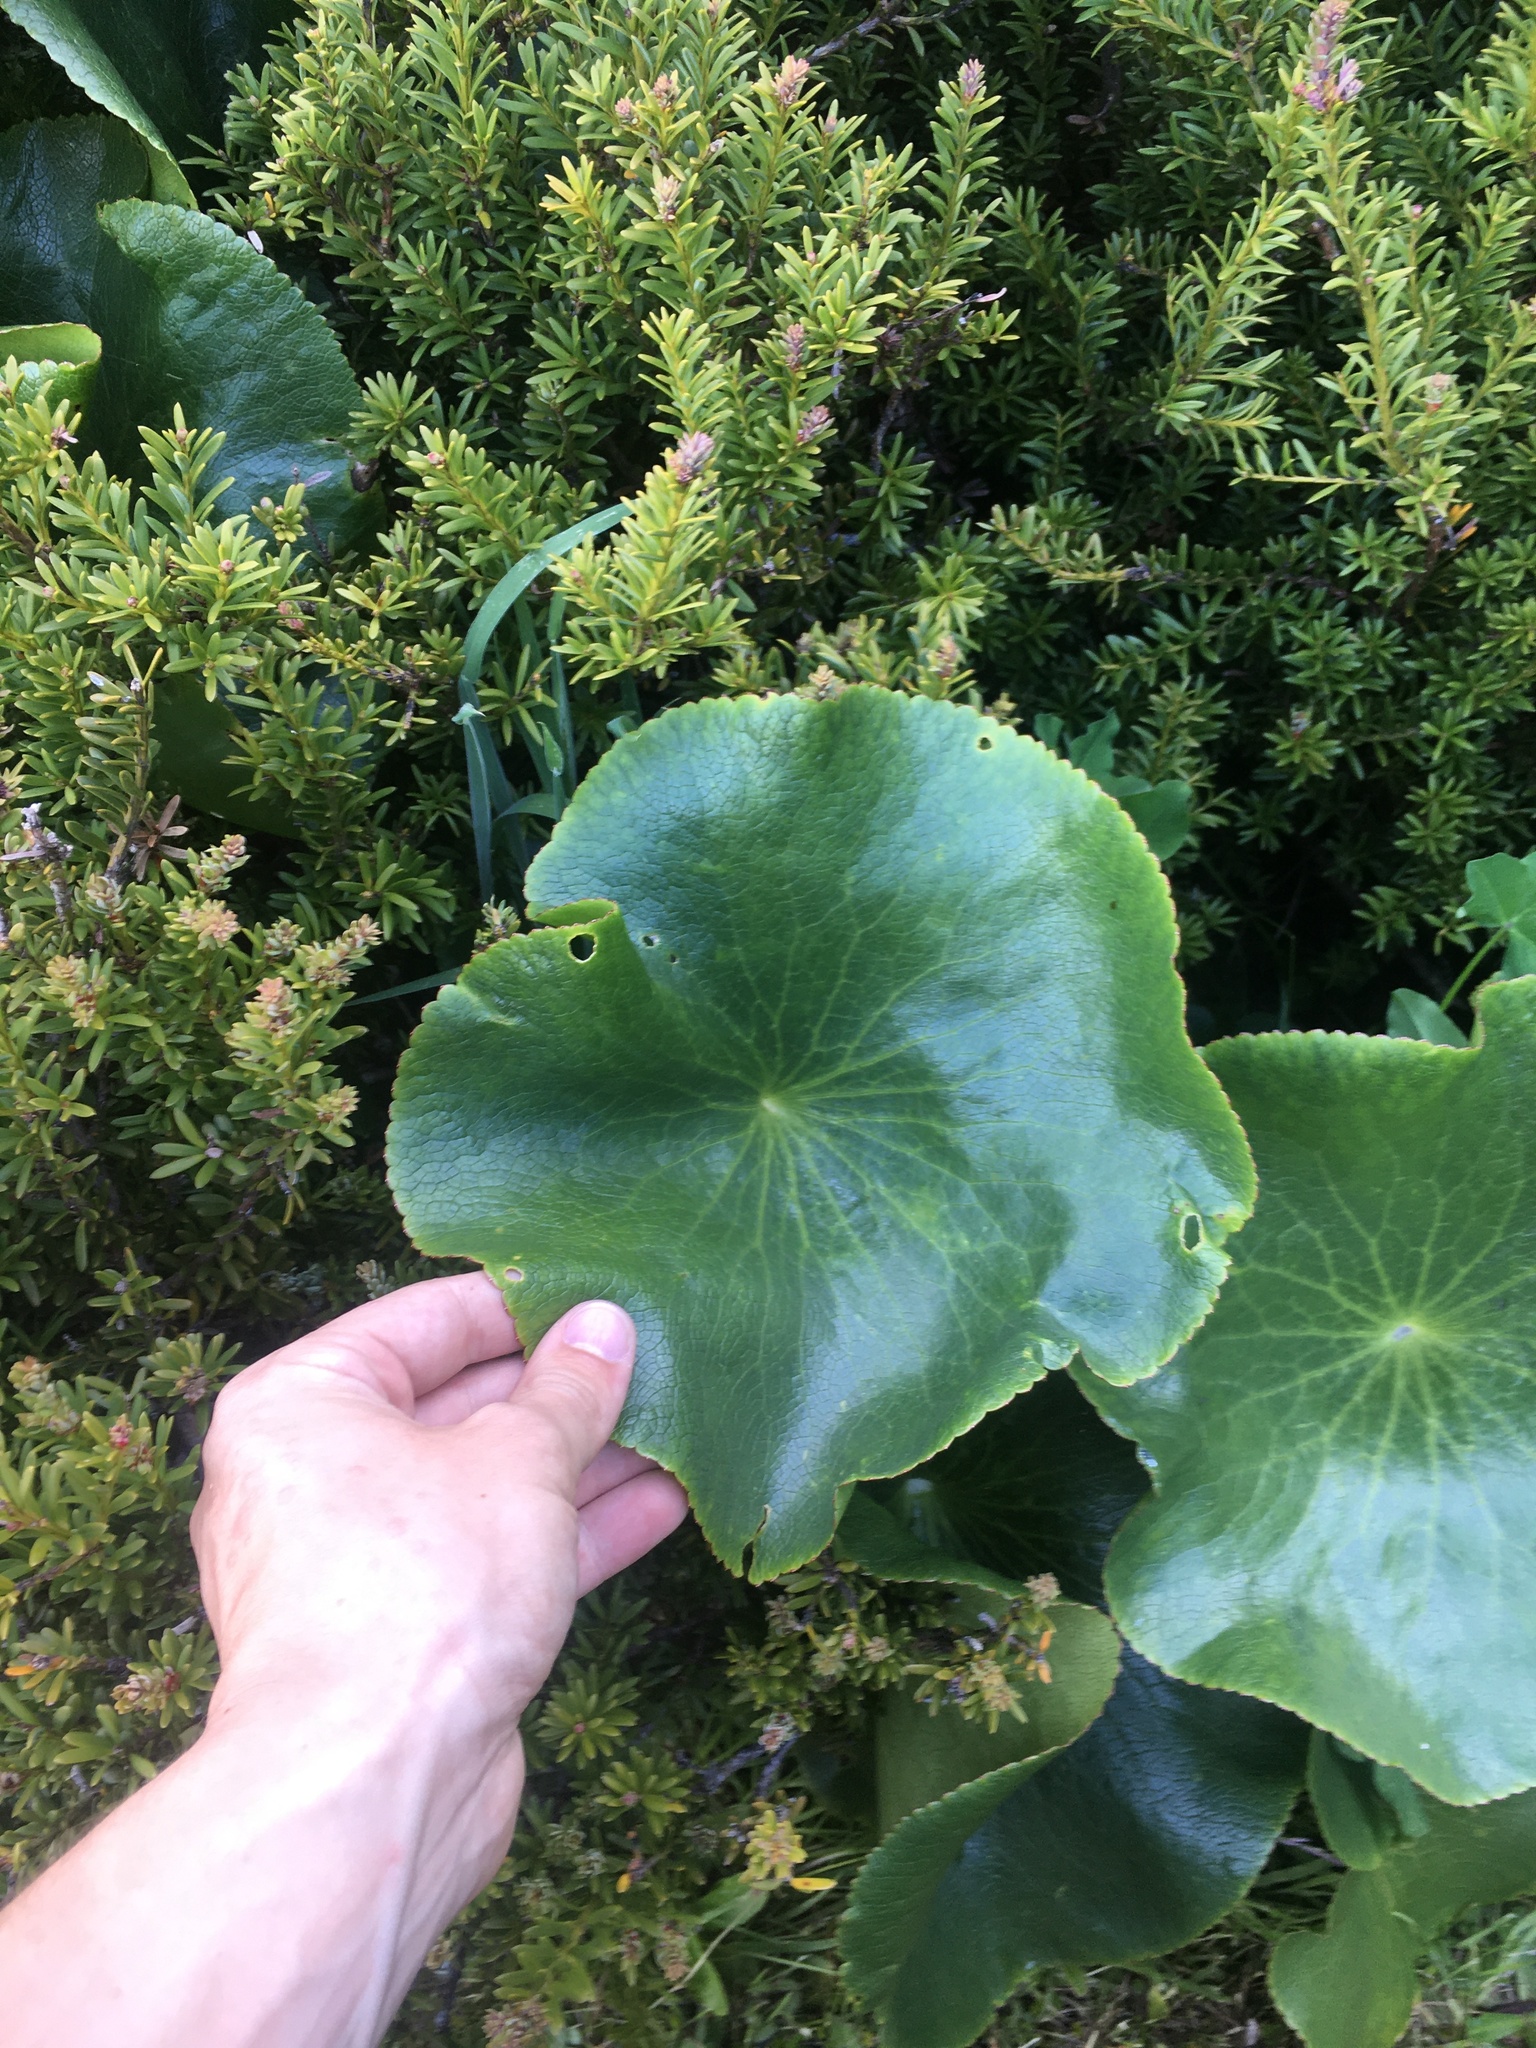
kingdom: Plantae
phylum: Tracheophyta
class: Magnoliopsida
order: Ranunculales
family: Ranunculaceae
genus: Ranunculus
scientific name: Ranunculus lyallii
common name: Mountain-lily
